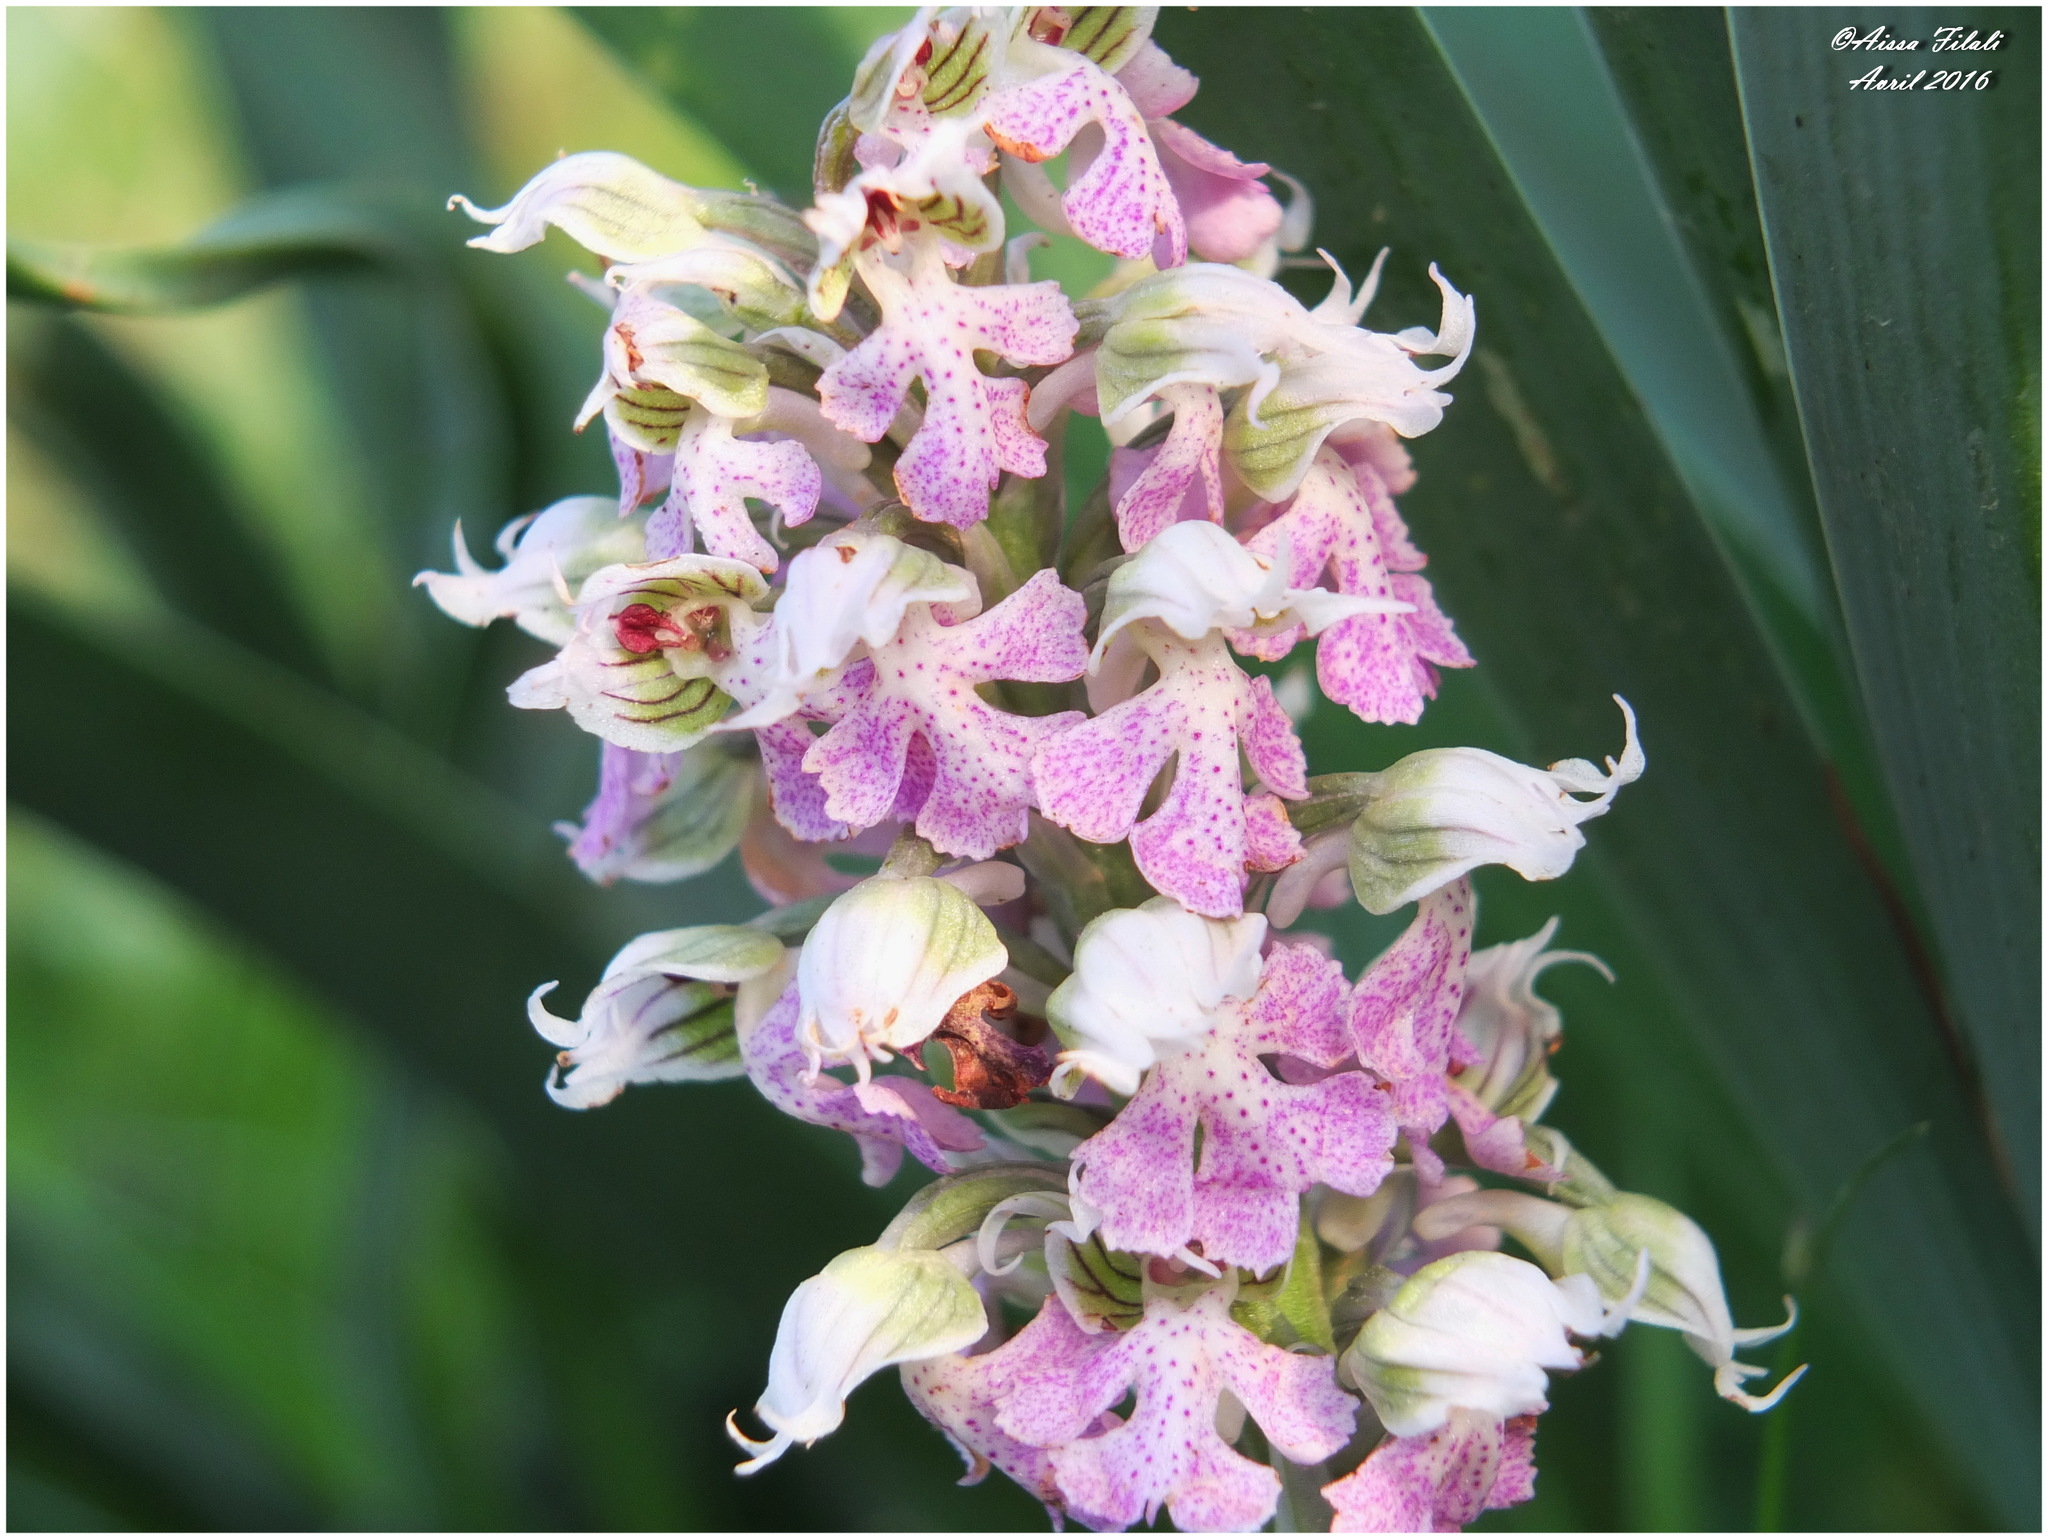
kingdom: Plantae
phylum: Tracheophyta
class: Liliopsida
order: Asparagales
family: Orchidaceae
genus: Neotinea
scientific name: Neotinea lactea
